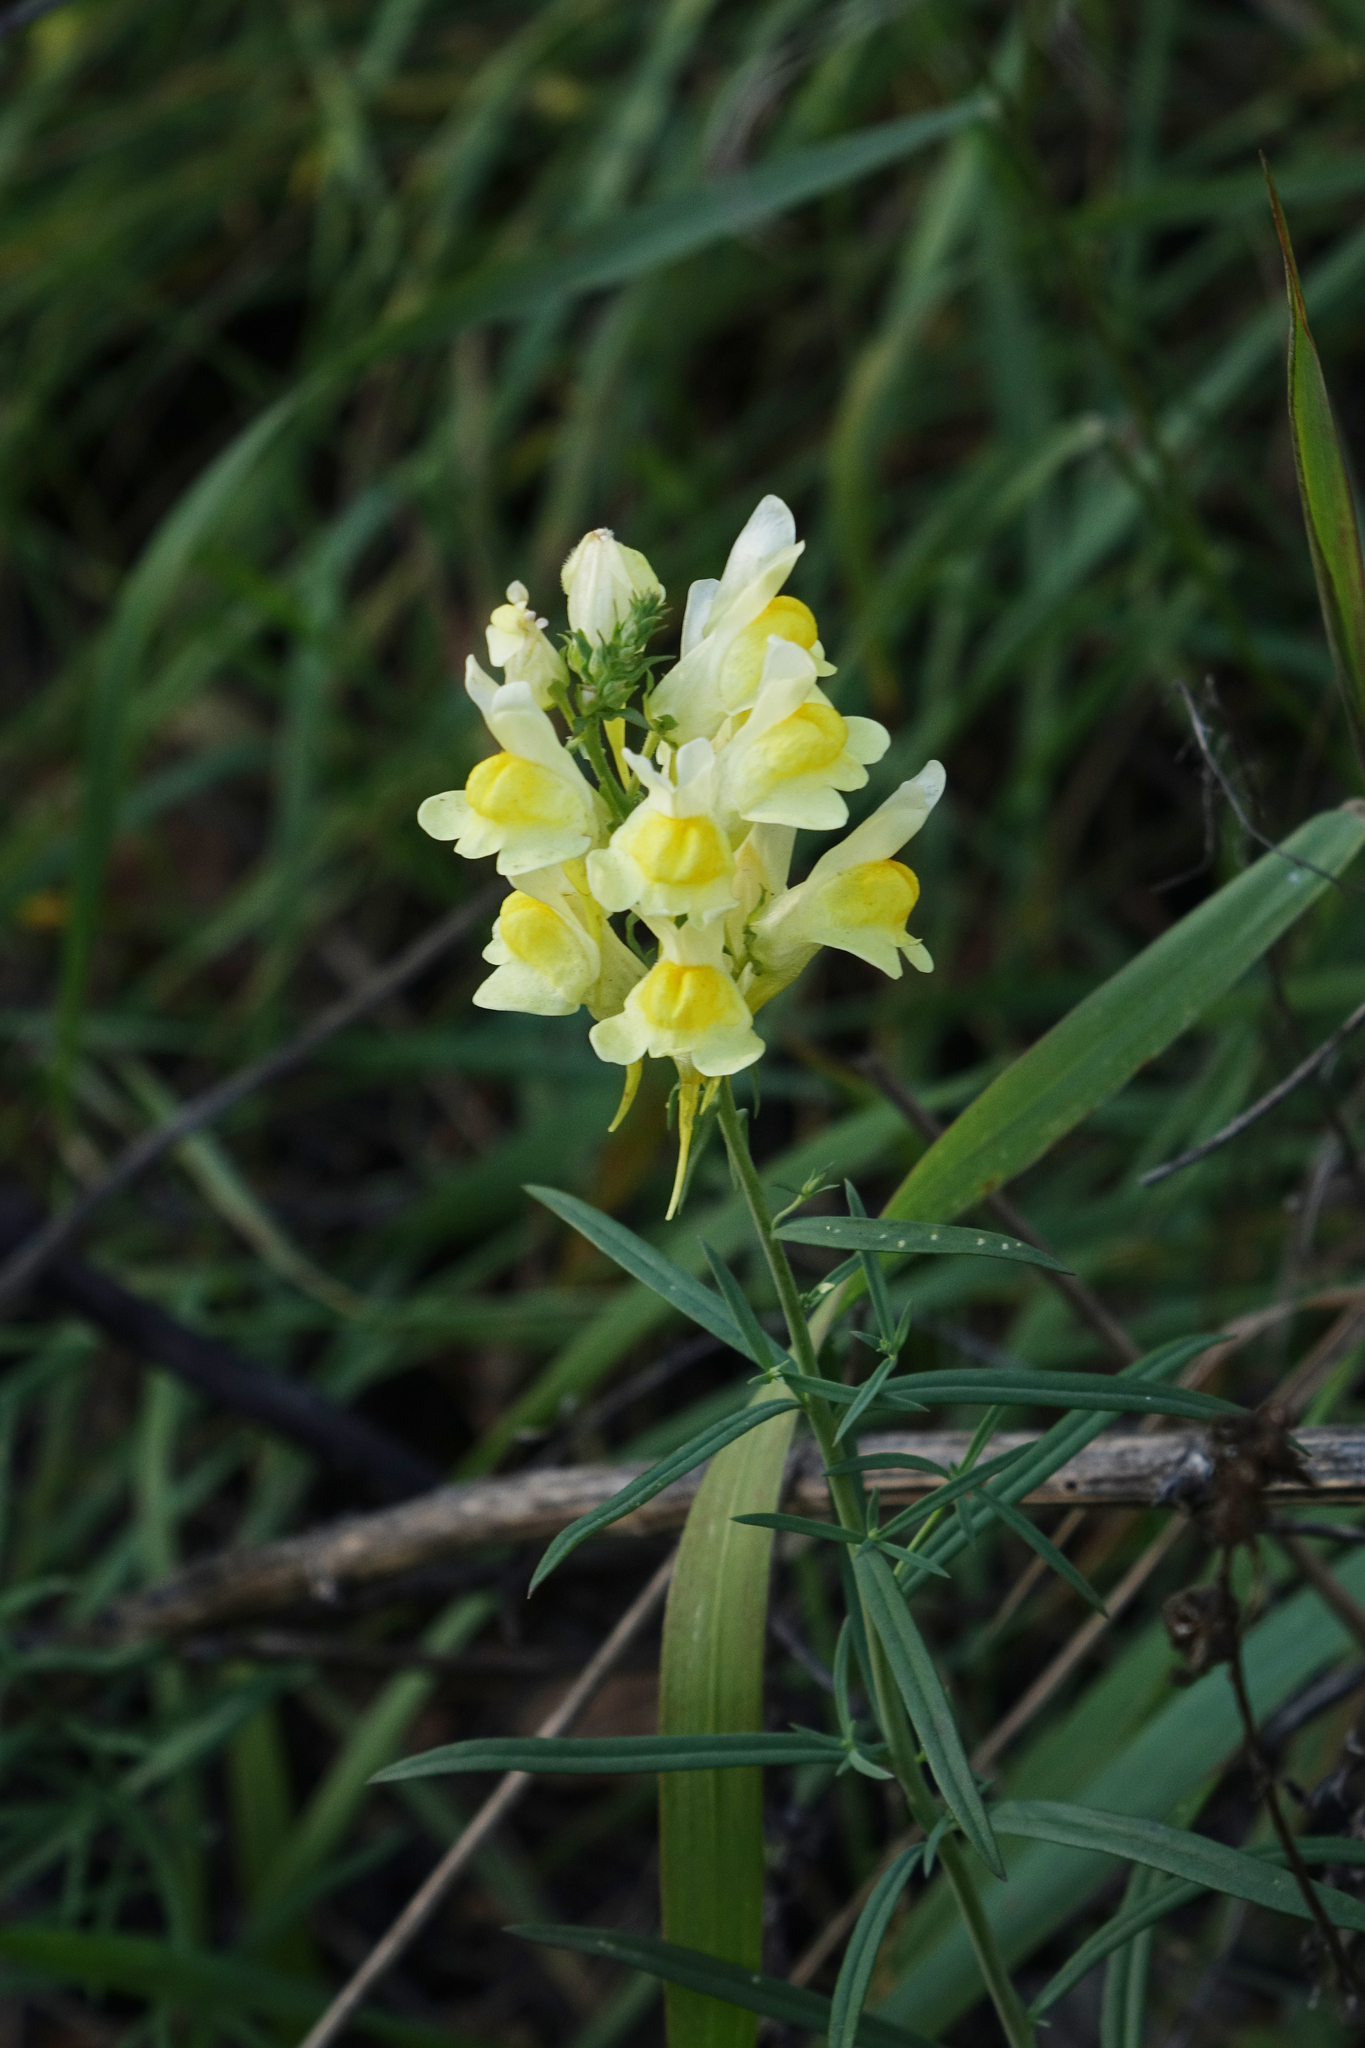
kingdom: Plantae
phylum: Tracheophyta
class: Magnoliopsida
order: Lamiales
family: Plantaginaceae
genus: Linaria
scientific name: Linaria vulgaris
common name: Butter and eggs
